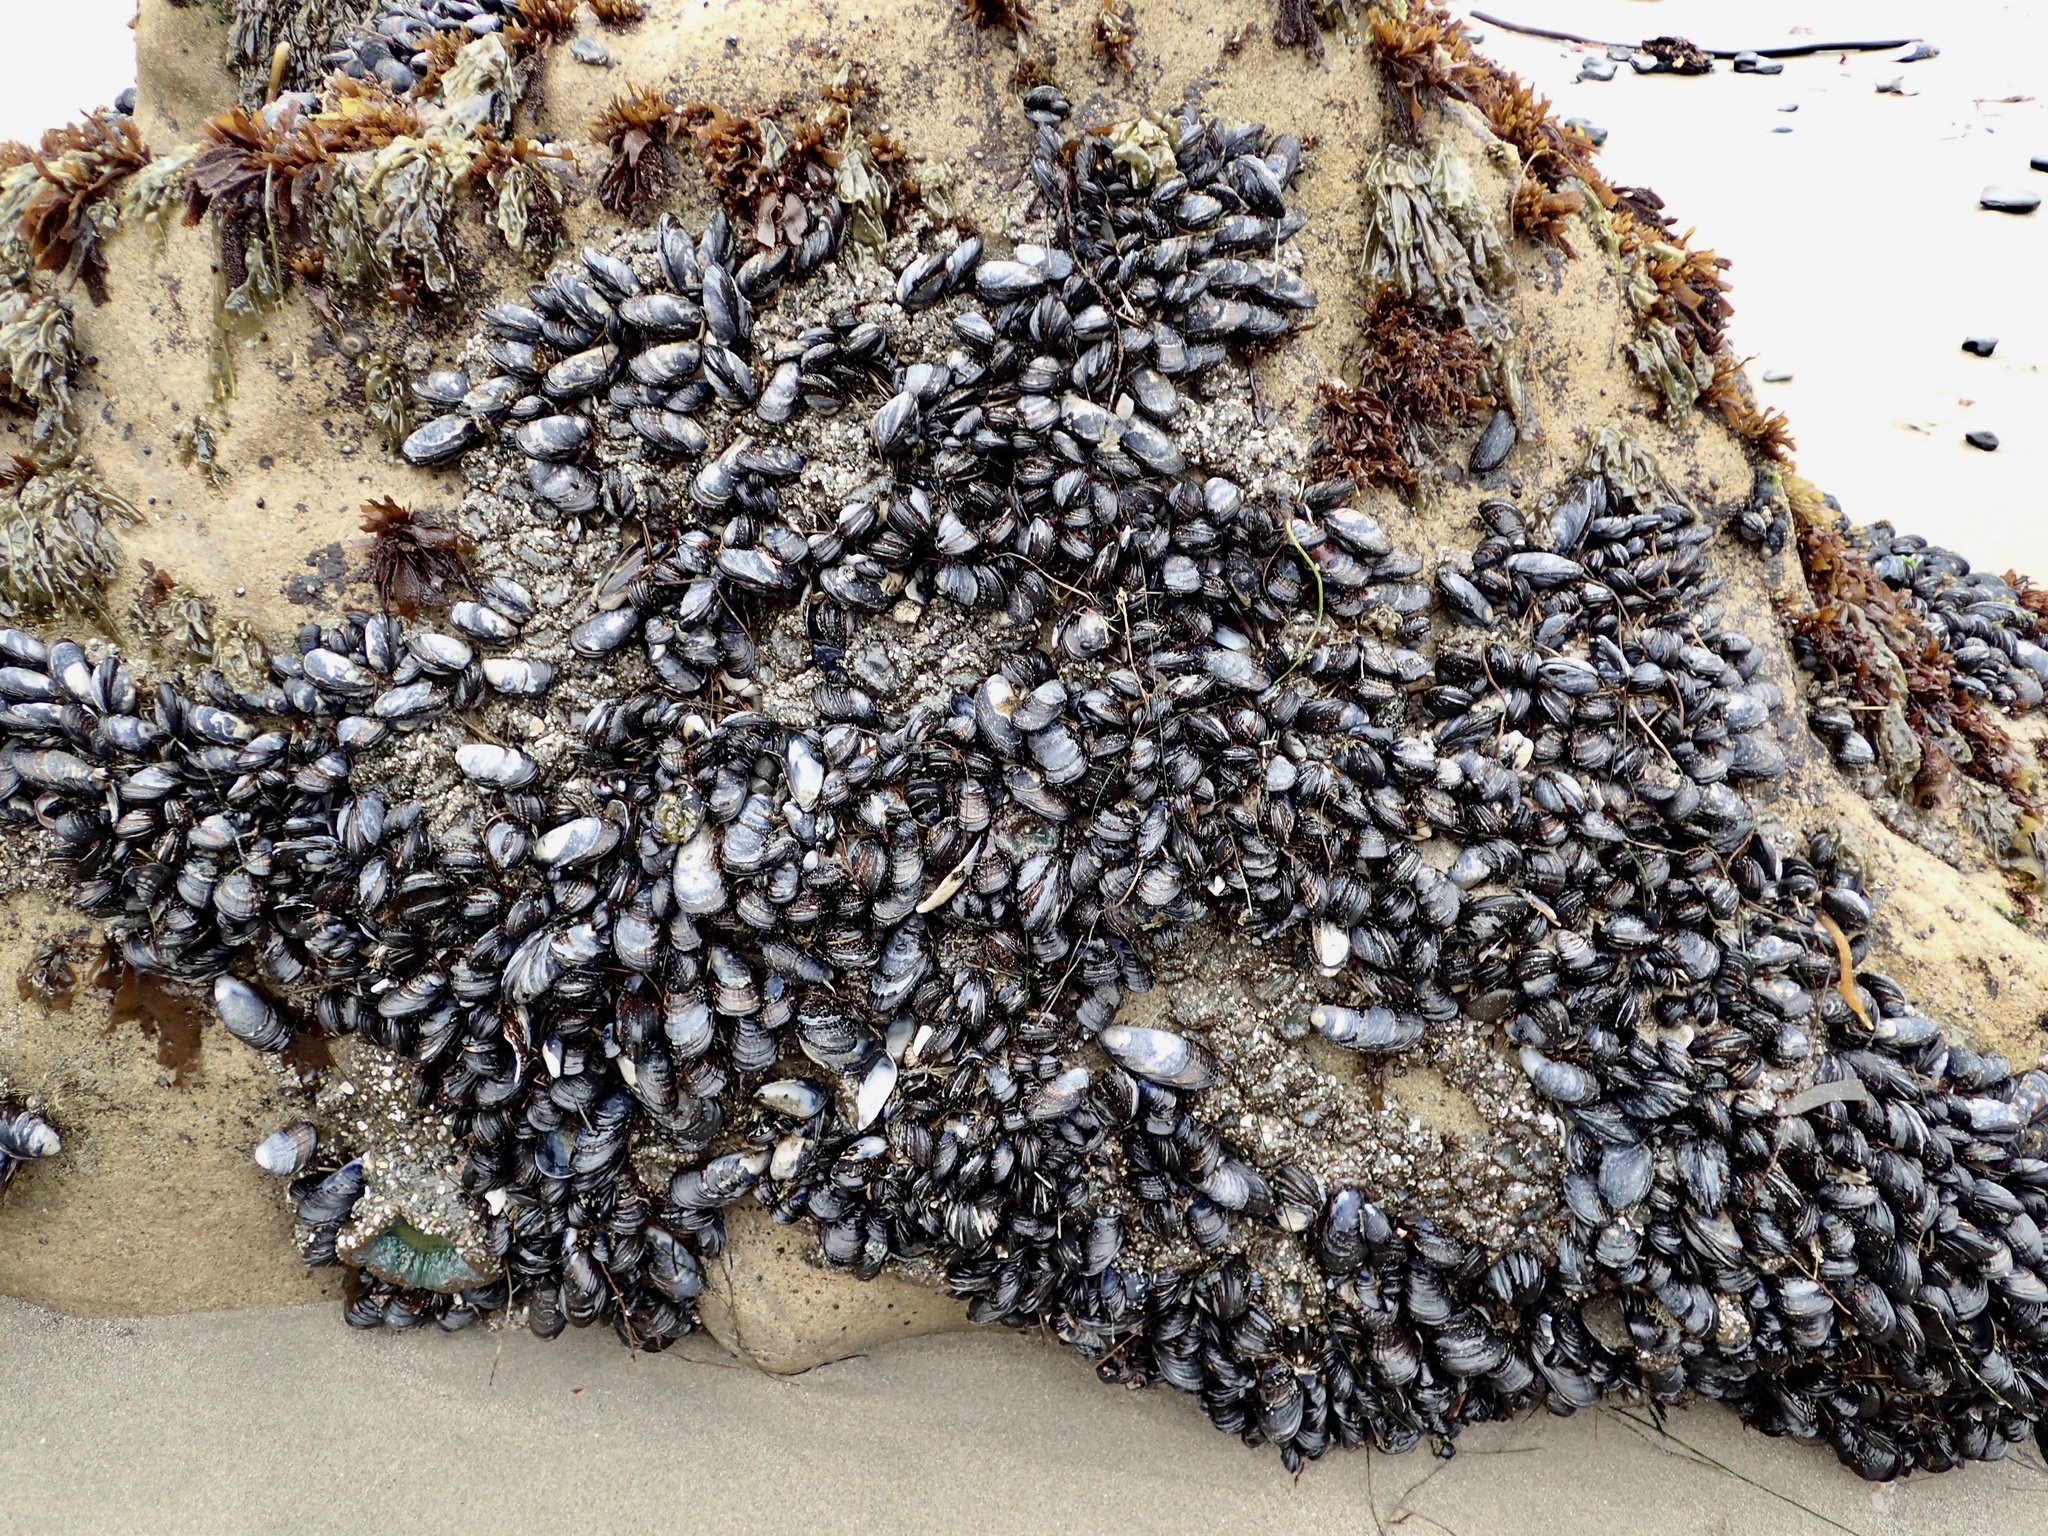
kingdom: Animalia
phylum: Mollusca
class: Bivalvia
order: Mytilida
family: Mytilidae
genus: Mytilus
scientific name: Mytilus californianus
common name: California mussel
